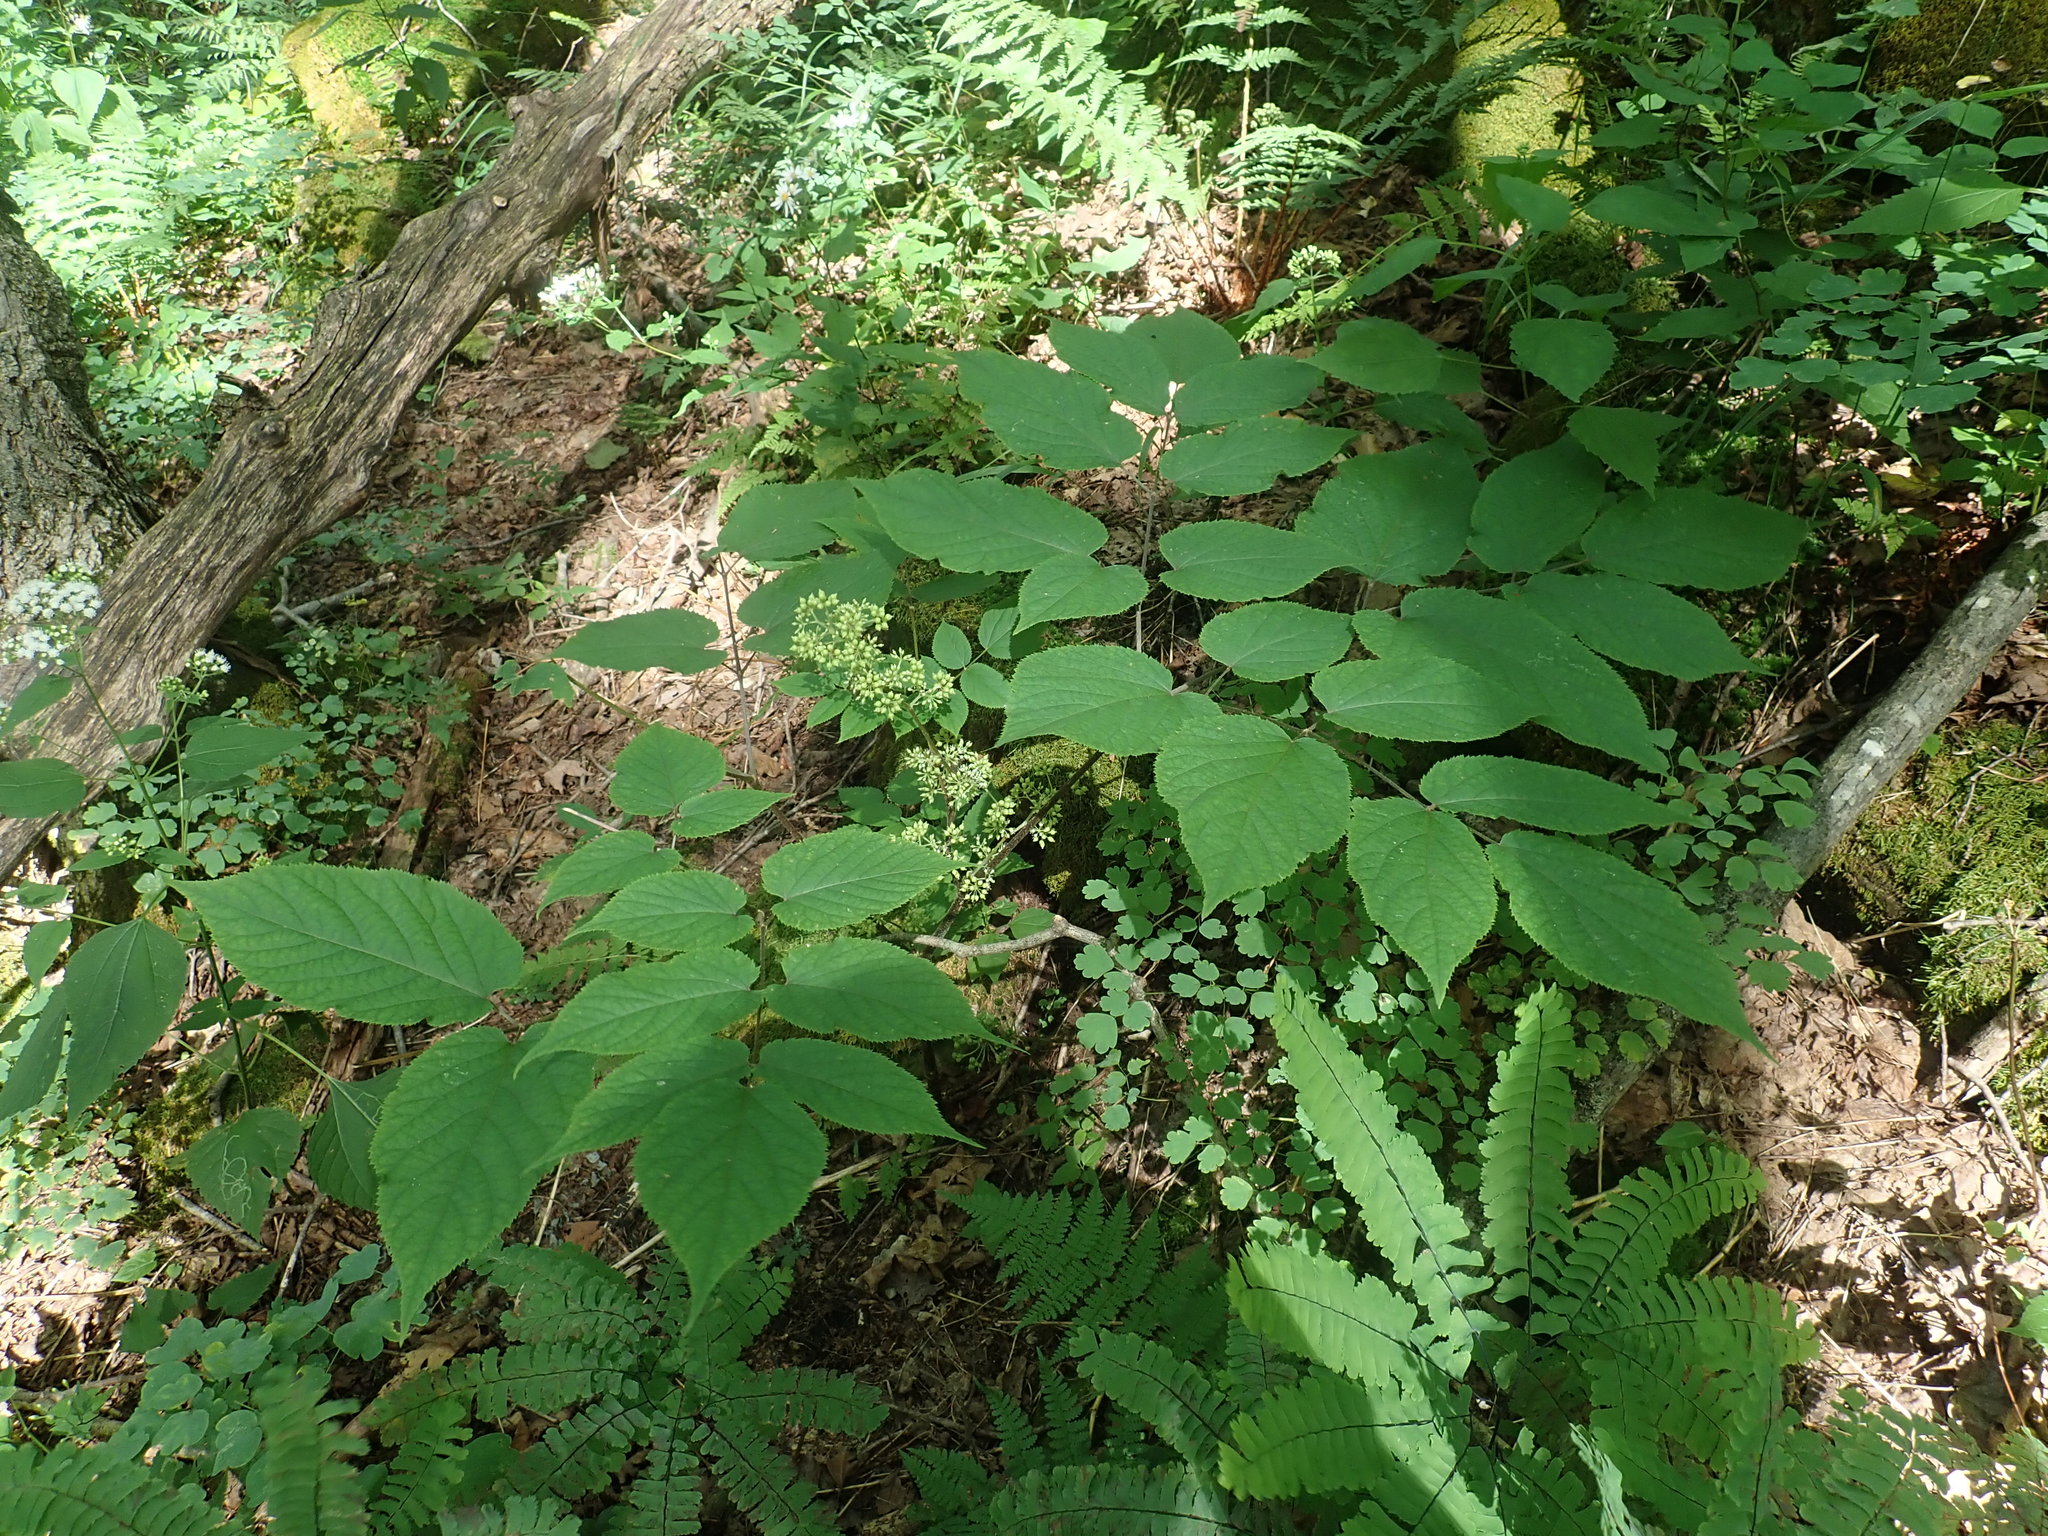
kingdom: Plantae
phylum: Tracheophyta
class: Magnoliopsida
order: Apiales
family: Araliaceae
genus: Aralia
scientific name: Aralia racemosa
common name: American-spikenard
